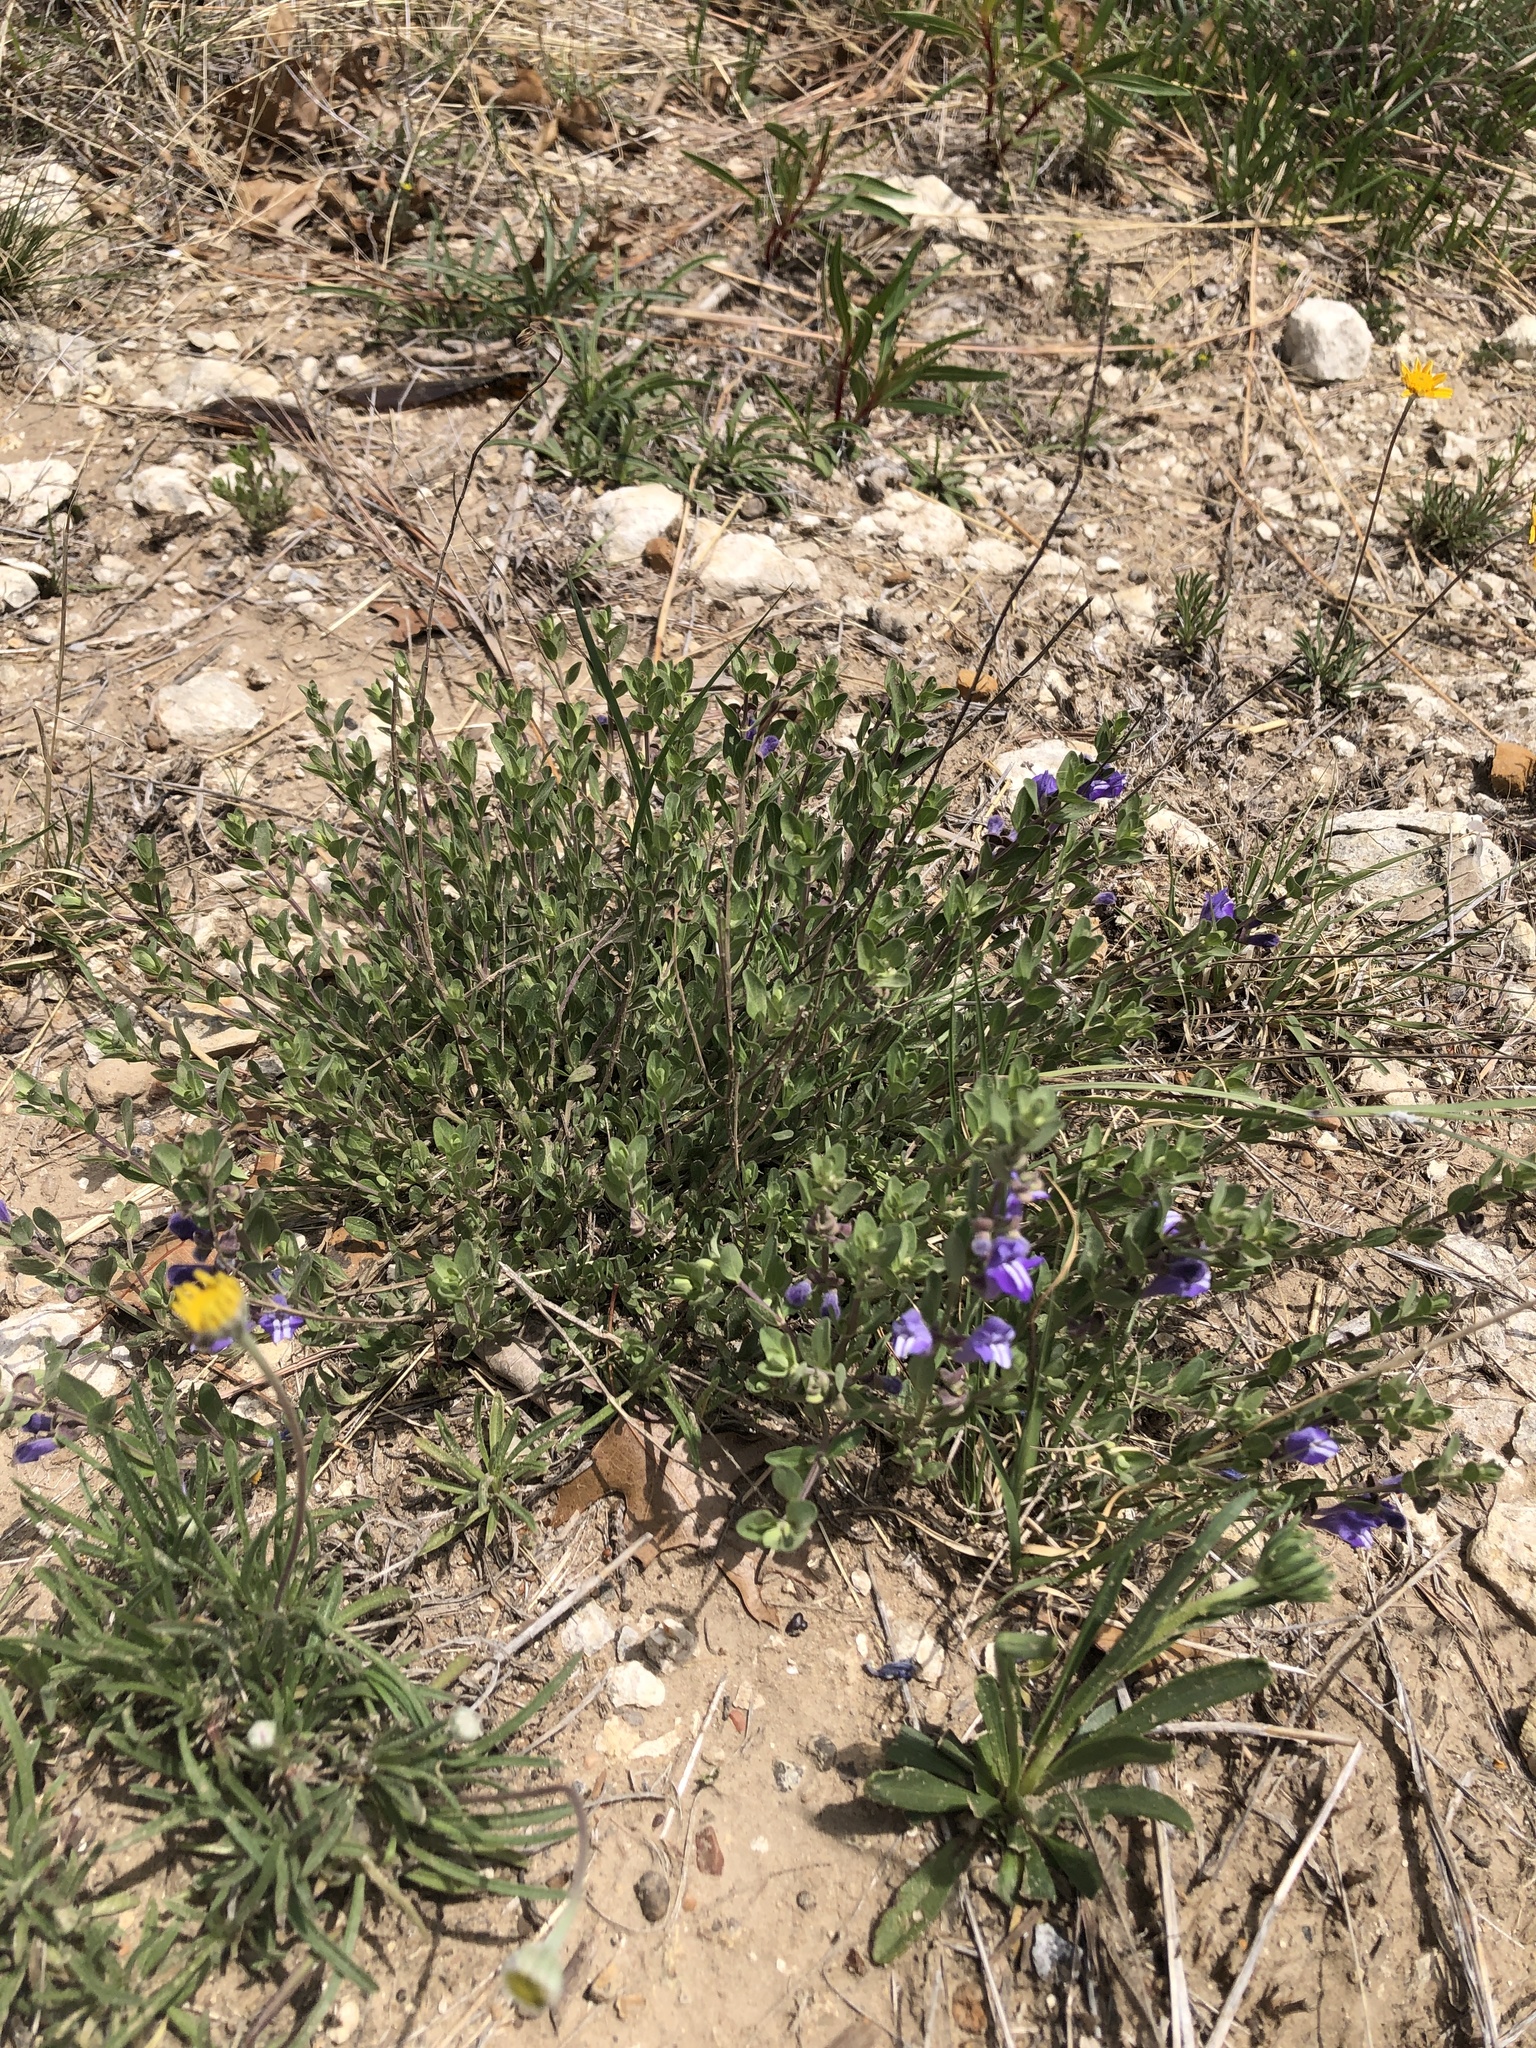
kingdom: Plantae
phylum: Tracheophyta
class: Magnoliopsida
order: Lamiales
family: Lamiaceae
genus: Scutellaria
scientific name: Scutellaria wrightii
